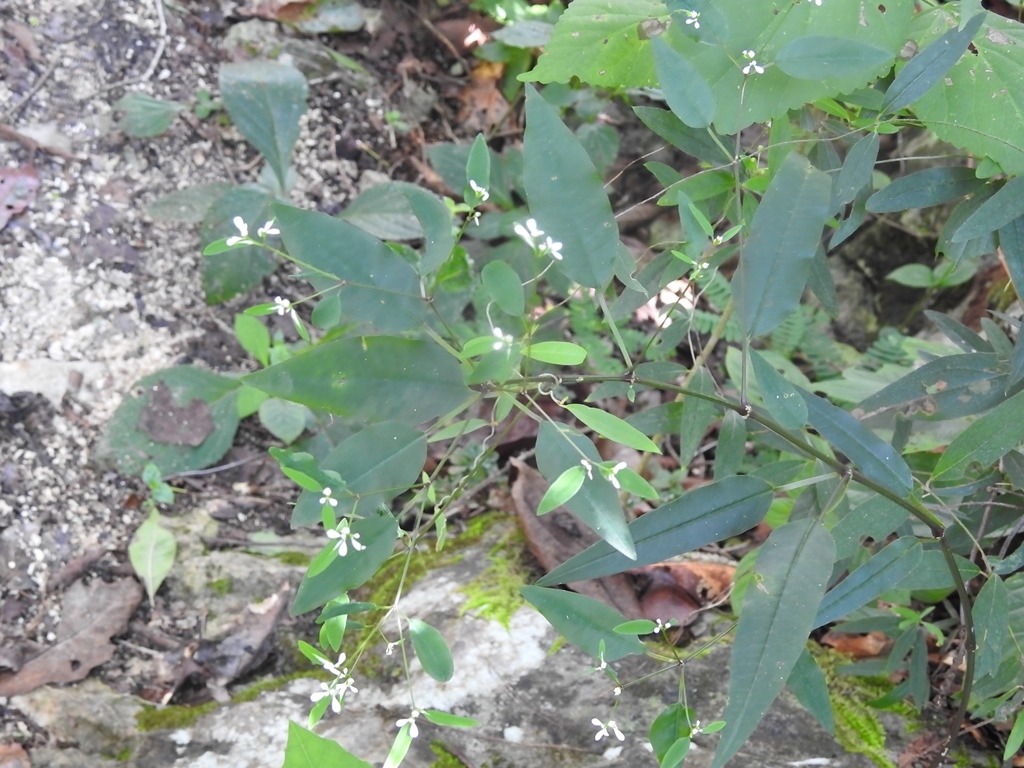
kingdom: Plantae
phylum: Tracheophyta
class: Magnoliopsida
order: Malpighiales
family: Euphorbiaceae
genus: Euphorbia
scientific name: Euphorbia ariensis
